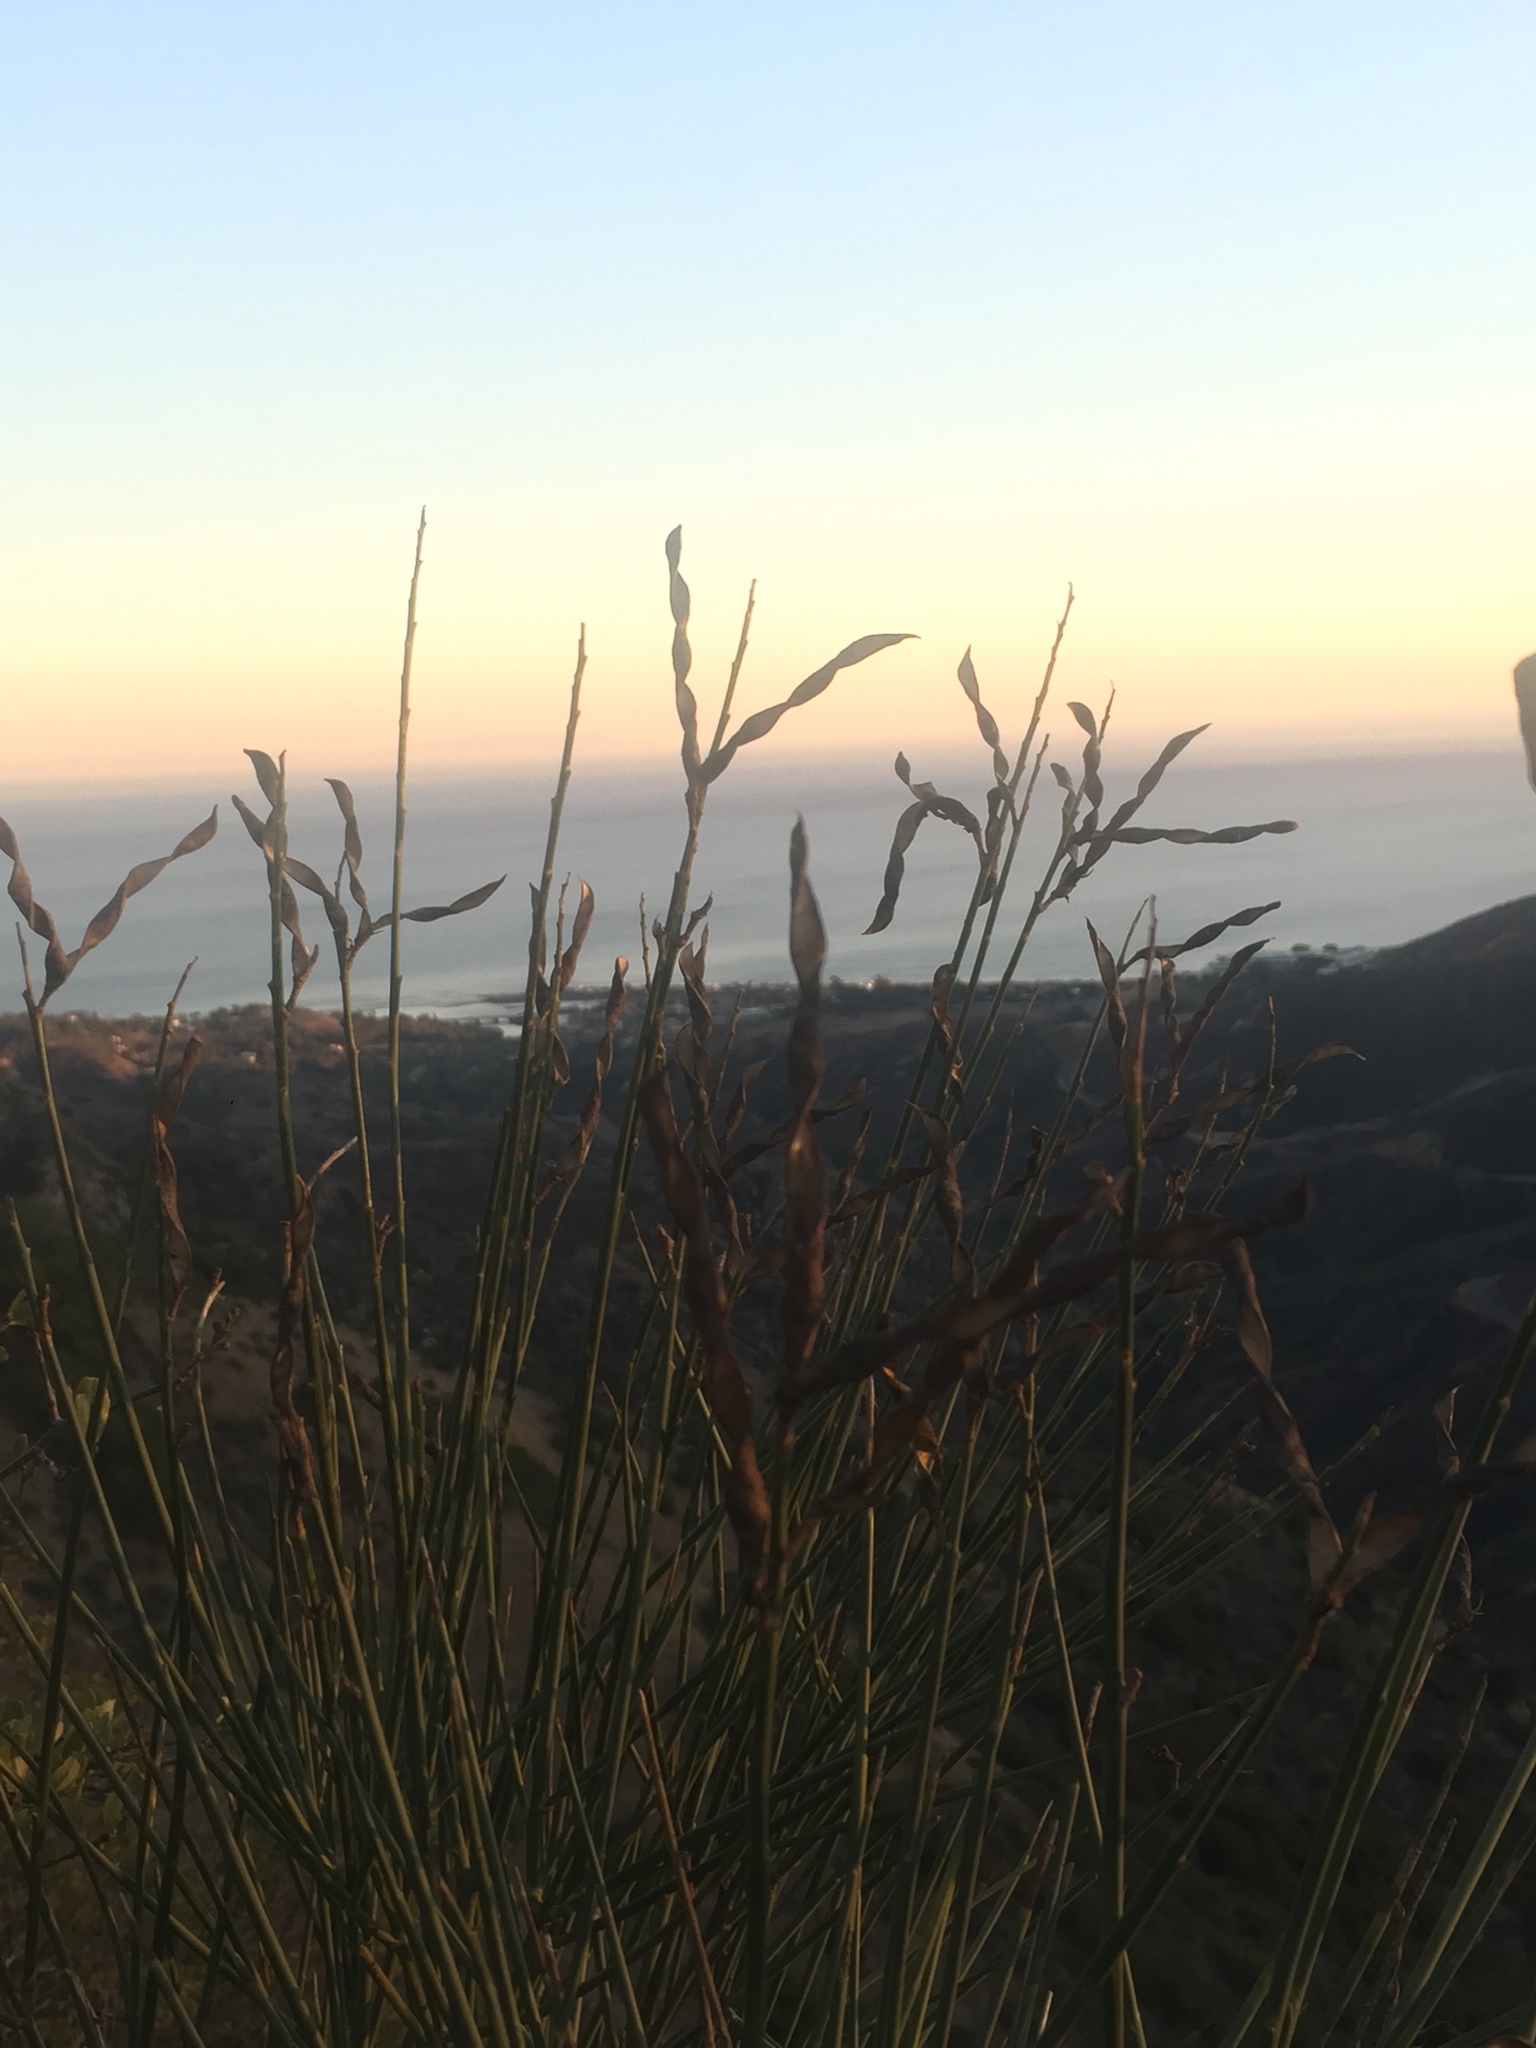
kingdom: Plantae
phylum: Tracheophyta
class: Magnoliopsida
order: Fabales
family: Fabaceae
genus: Spartium
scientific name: Spartium junceum
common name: Spanish broom
